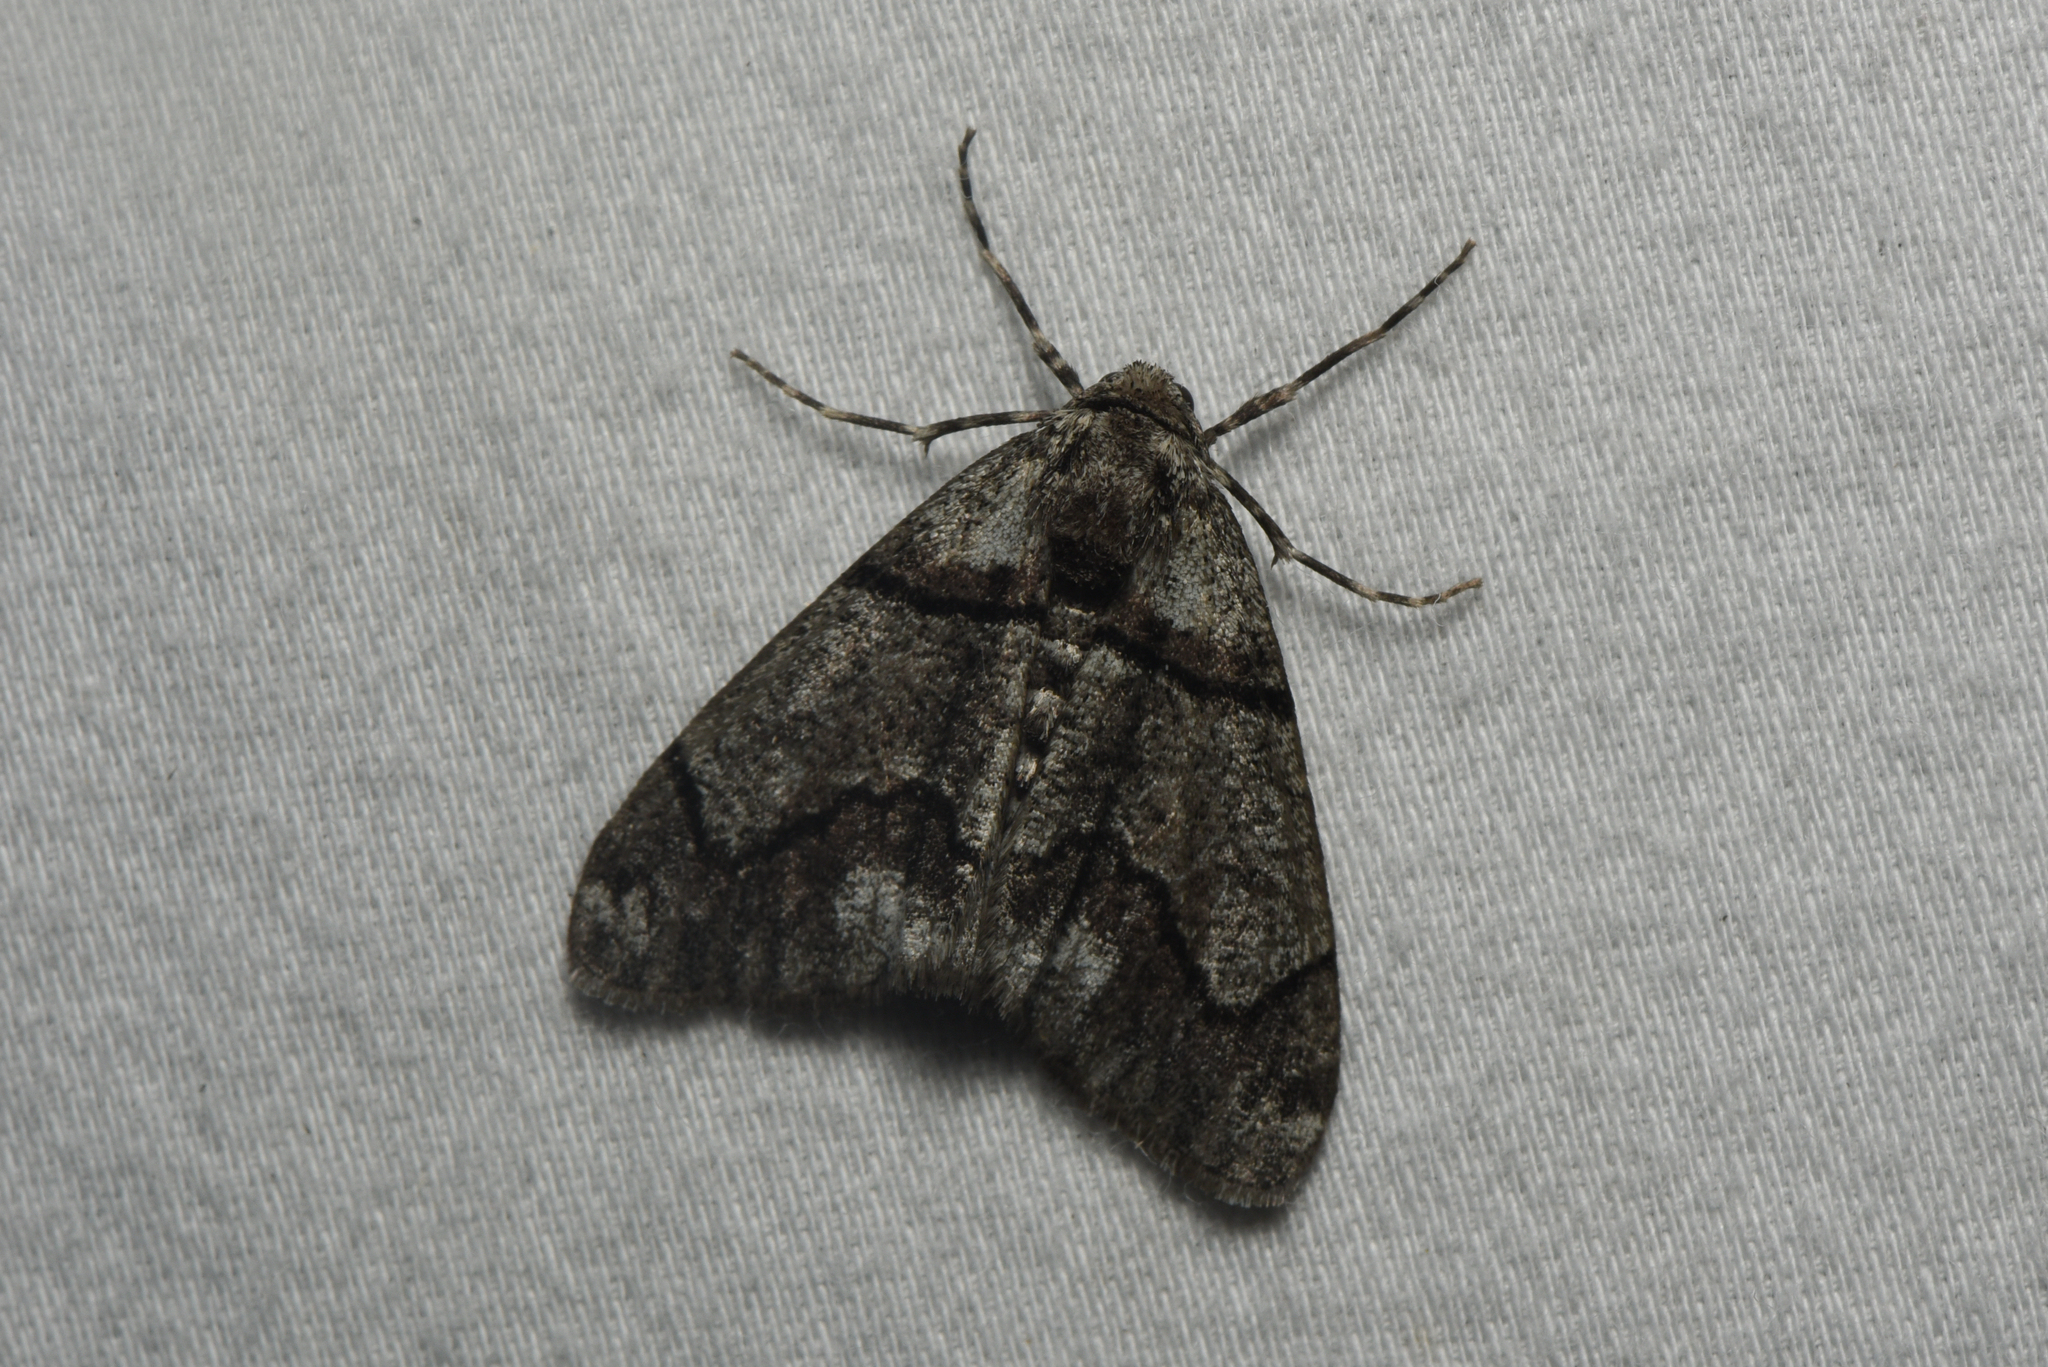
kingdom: Animalia
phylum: Arthropoda
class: Insecta
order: Lepidoptera
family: Geometridae
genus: Gabriola
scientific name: Gabriola dyari
